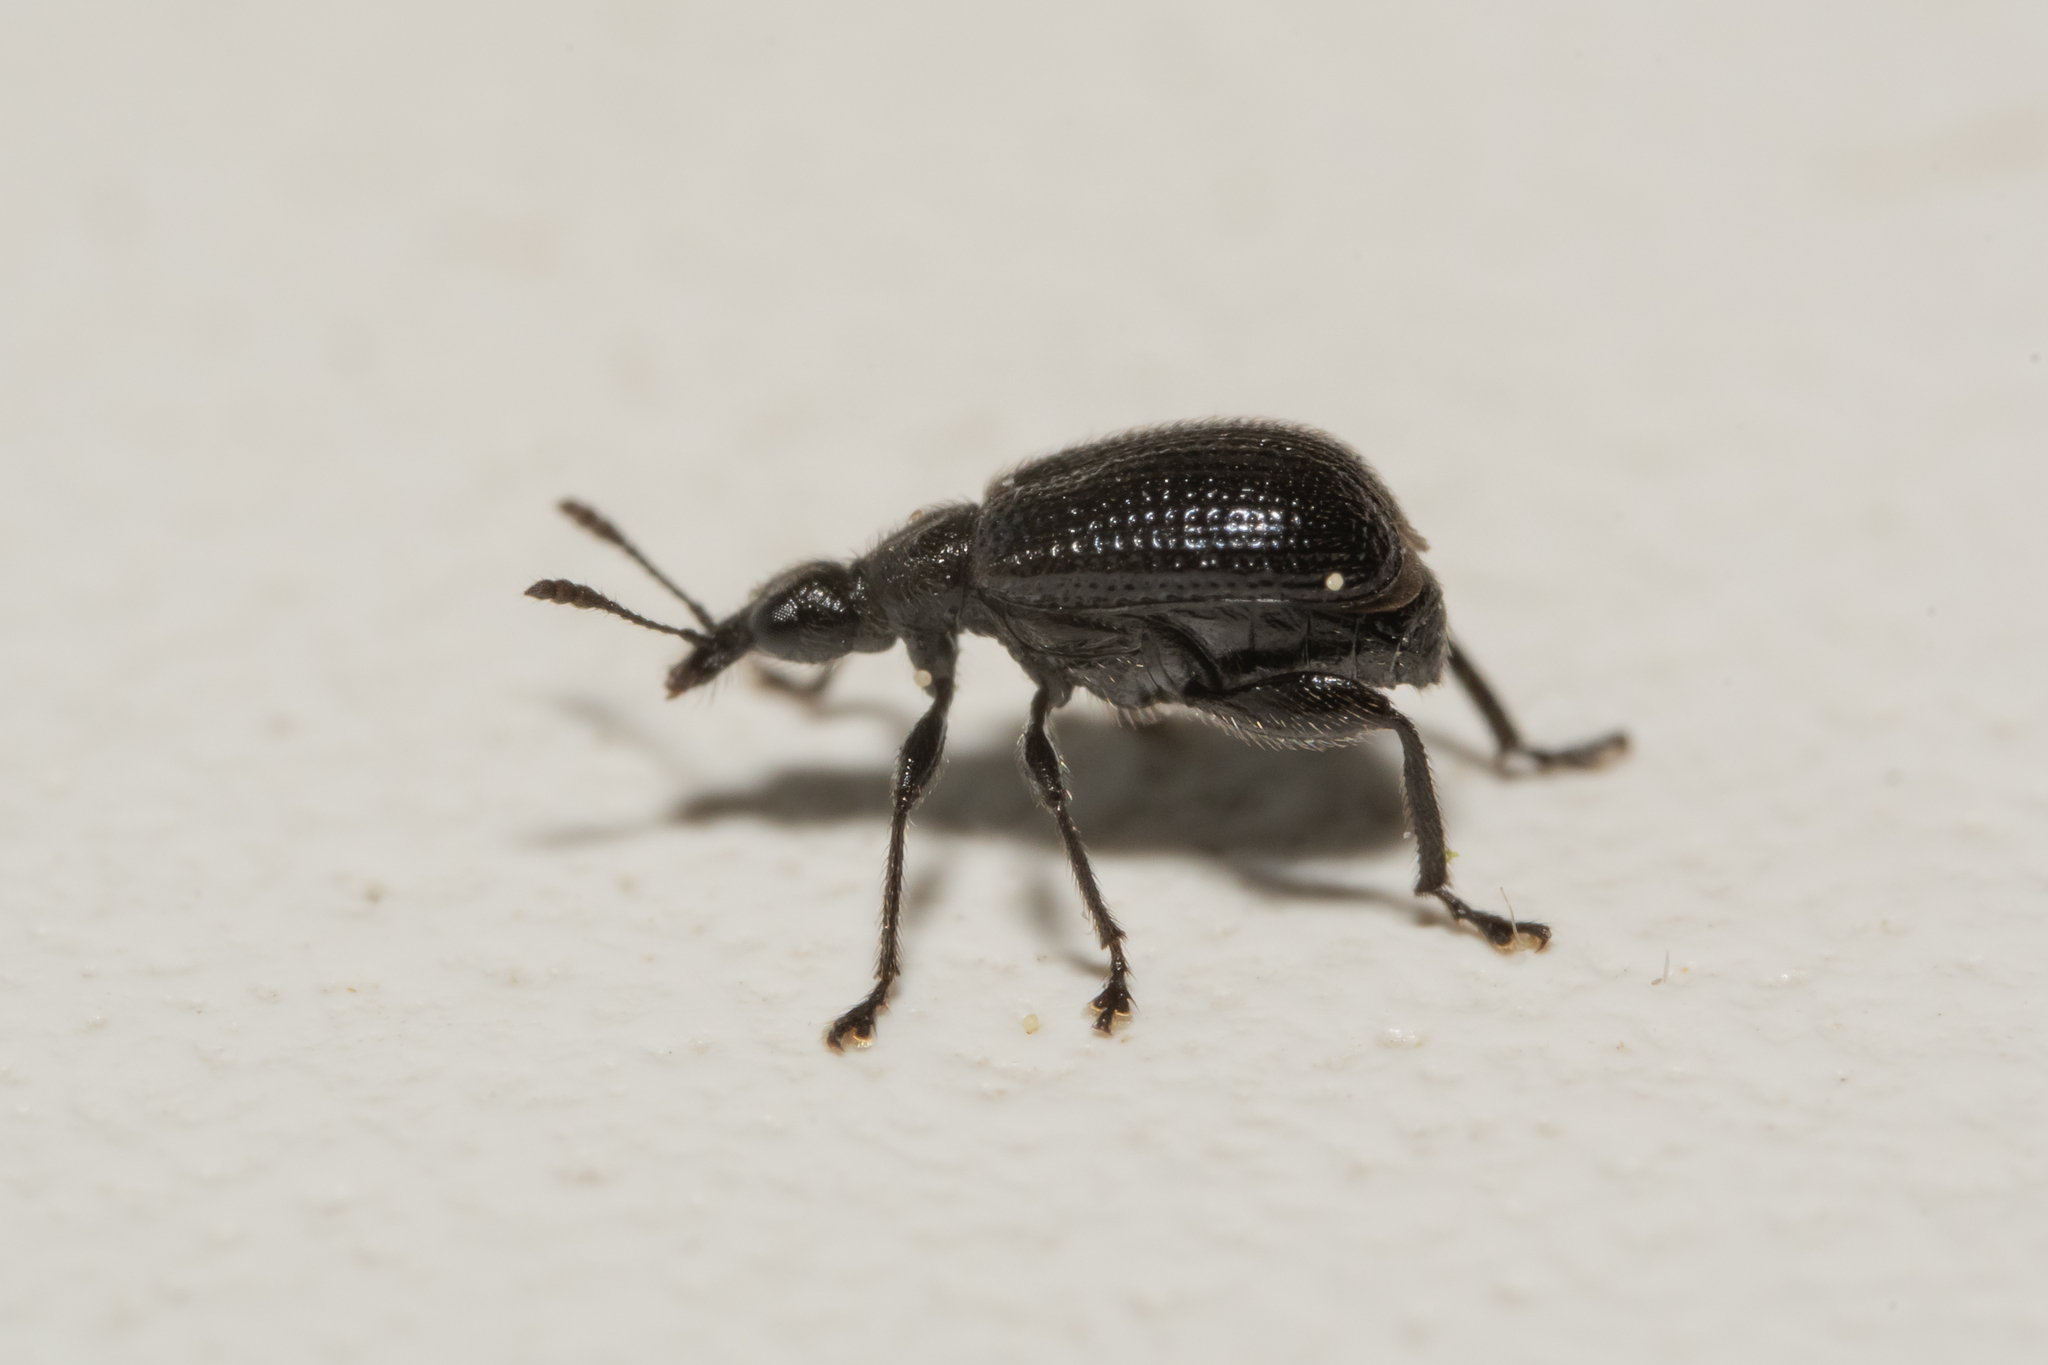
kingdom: Animalia
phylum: Arthropoda
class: Insecta
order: Coleoptera
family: Attelabidae
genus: Deporaus
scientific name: Deporaus betulae
